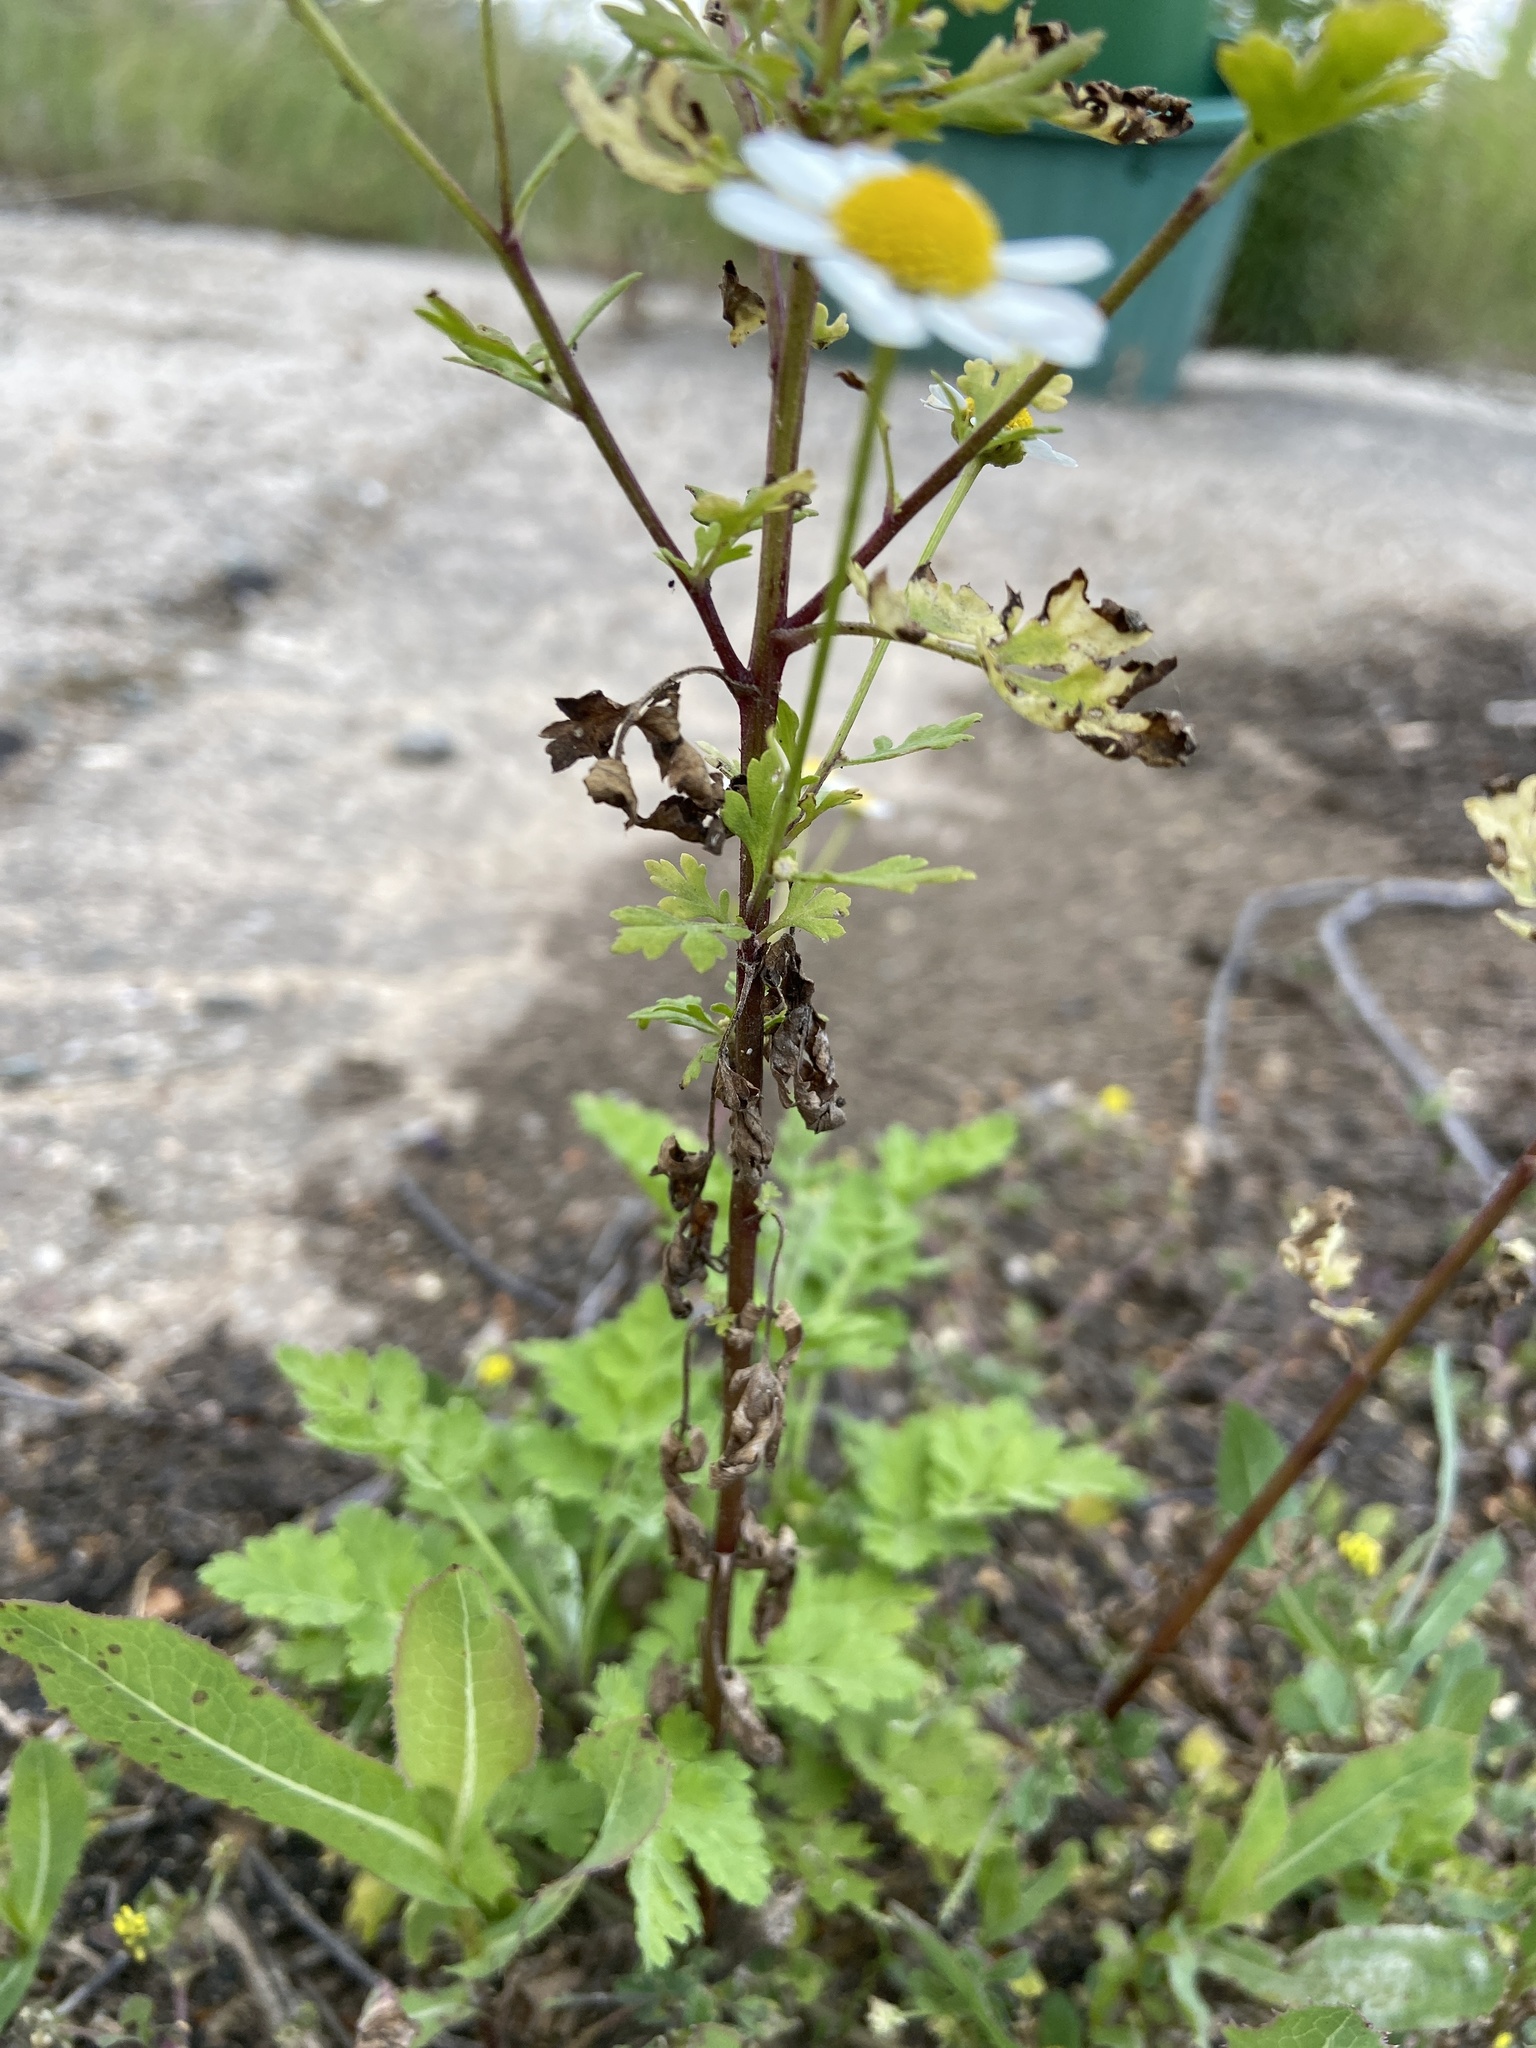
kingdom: Plantae
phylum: Tracheophyta
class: Magnoliopsida
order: Asterales
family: Asteraceae
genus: Tanacetum
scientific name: Tanacetum parthenium
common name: Feverfew
